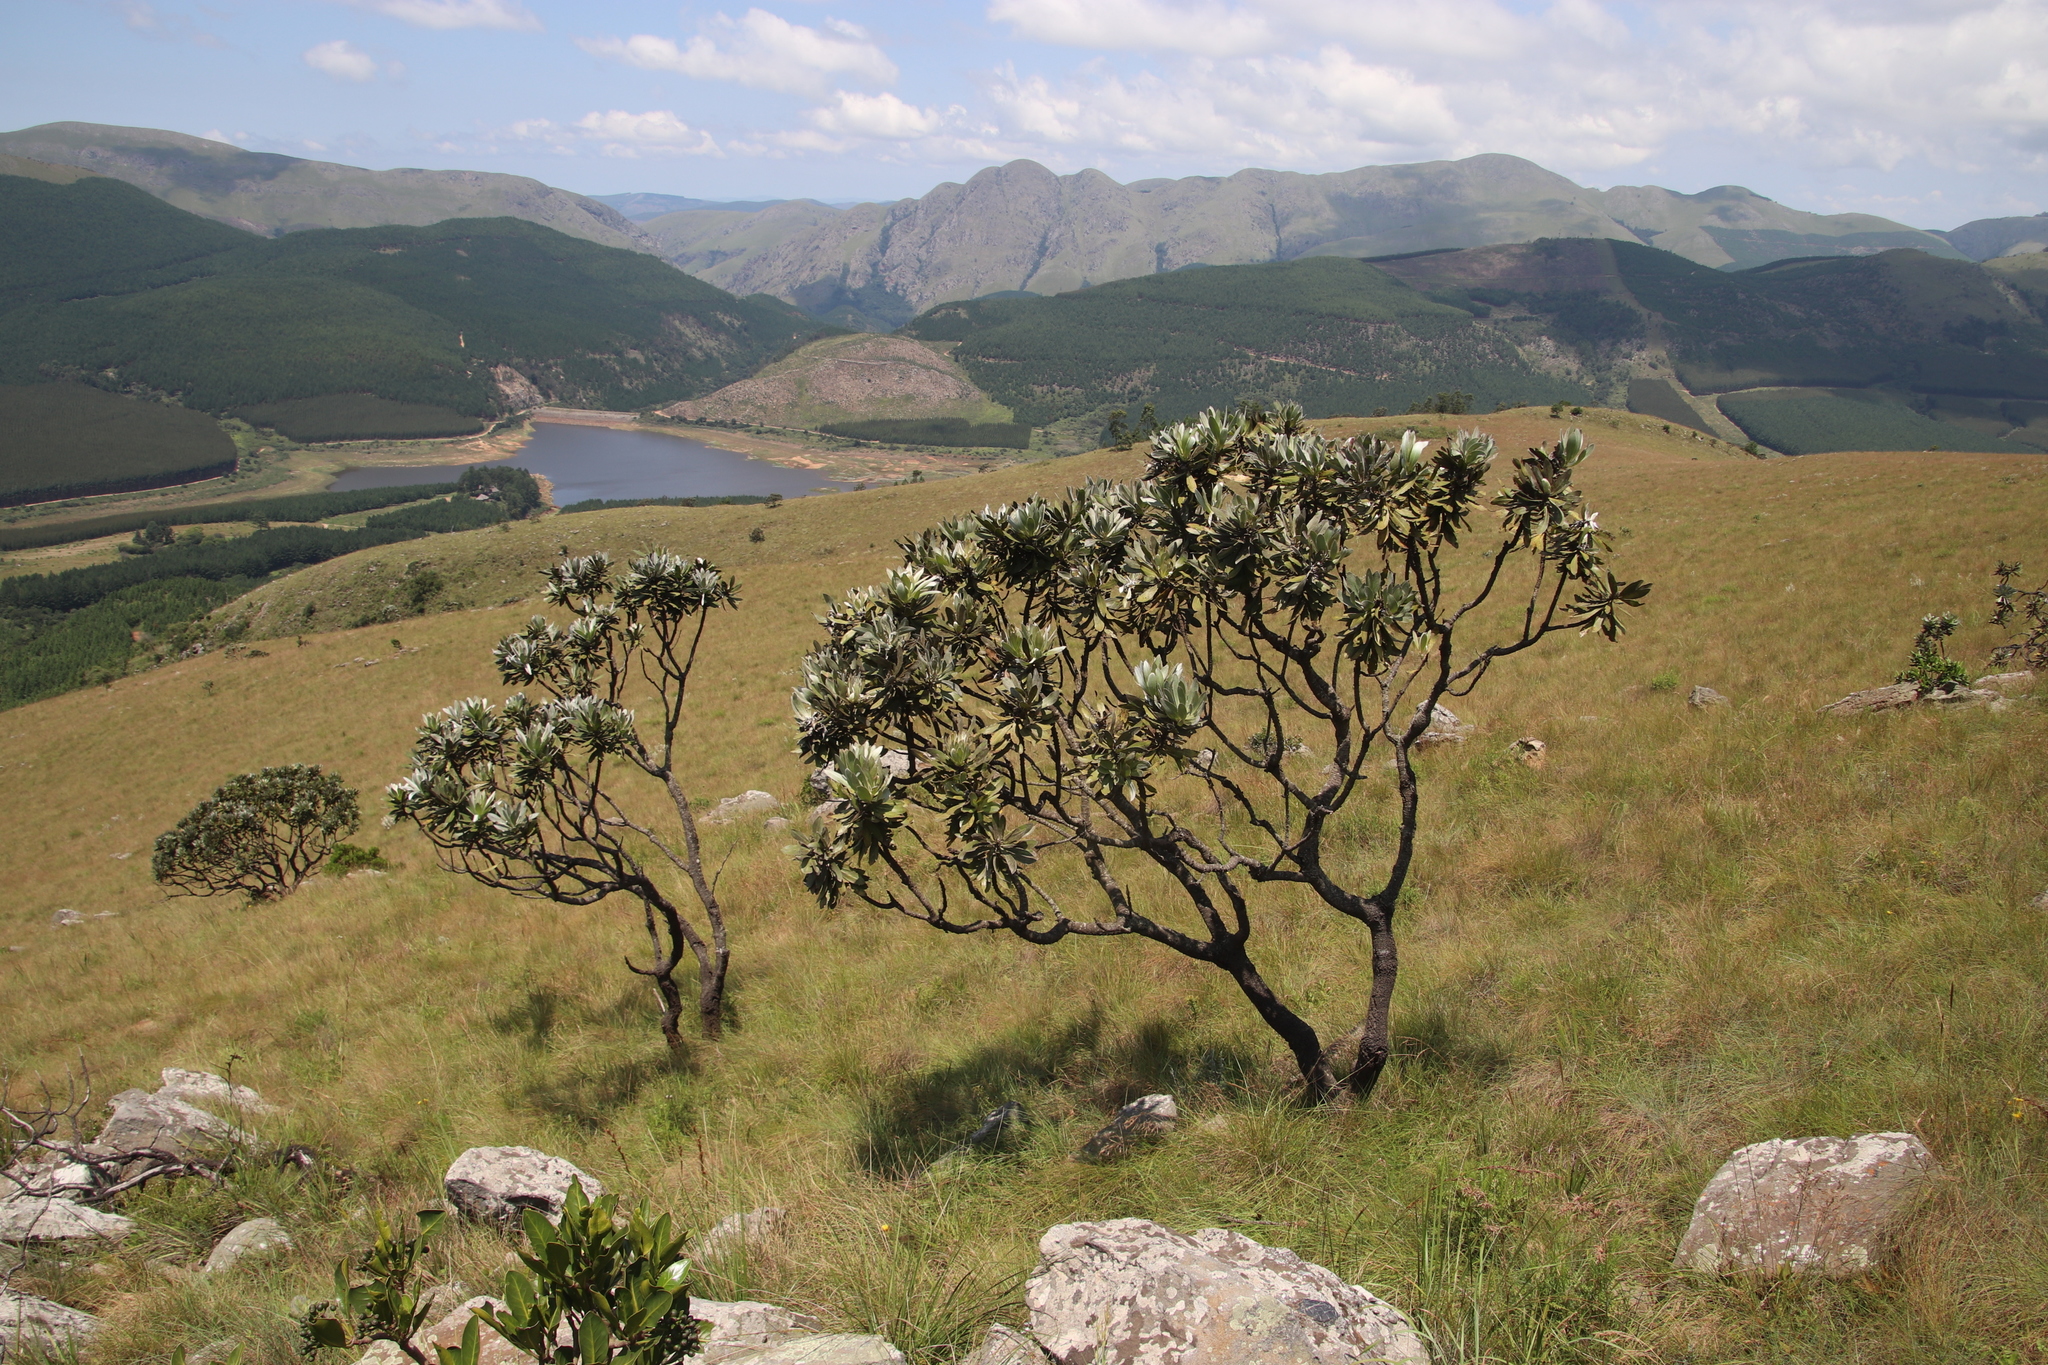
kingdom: Plantae
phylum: Tracheophyta
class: Magnoliopsida
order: Proteales
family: Proteaceae
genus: Protea
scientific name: Protea roupelliae
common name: Silver sugarbush
